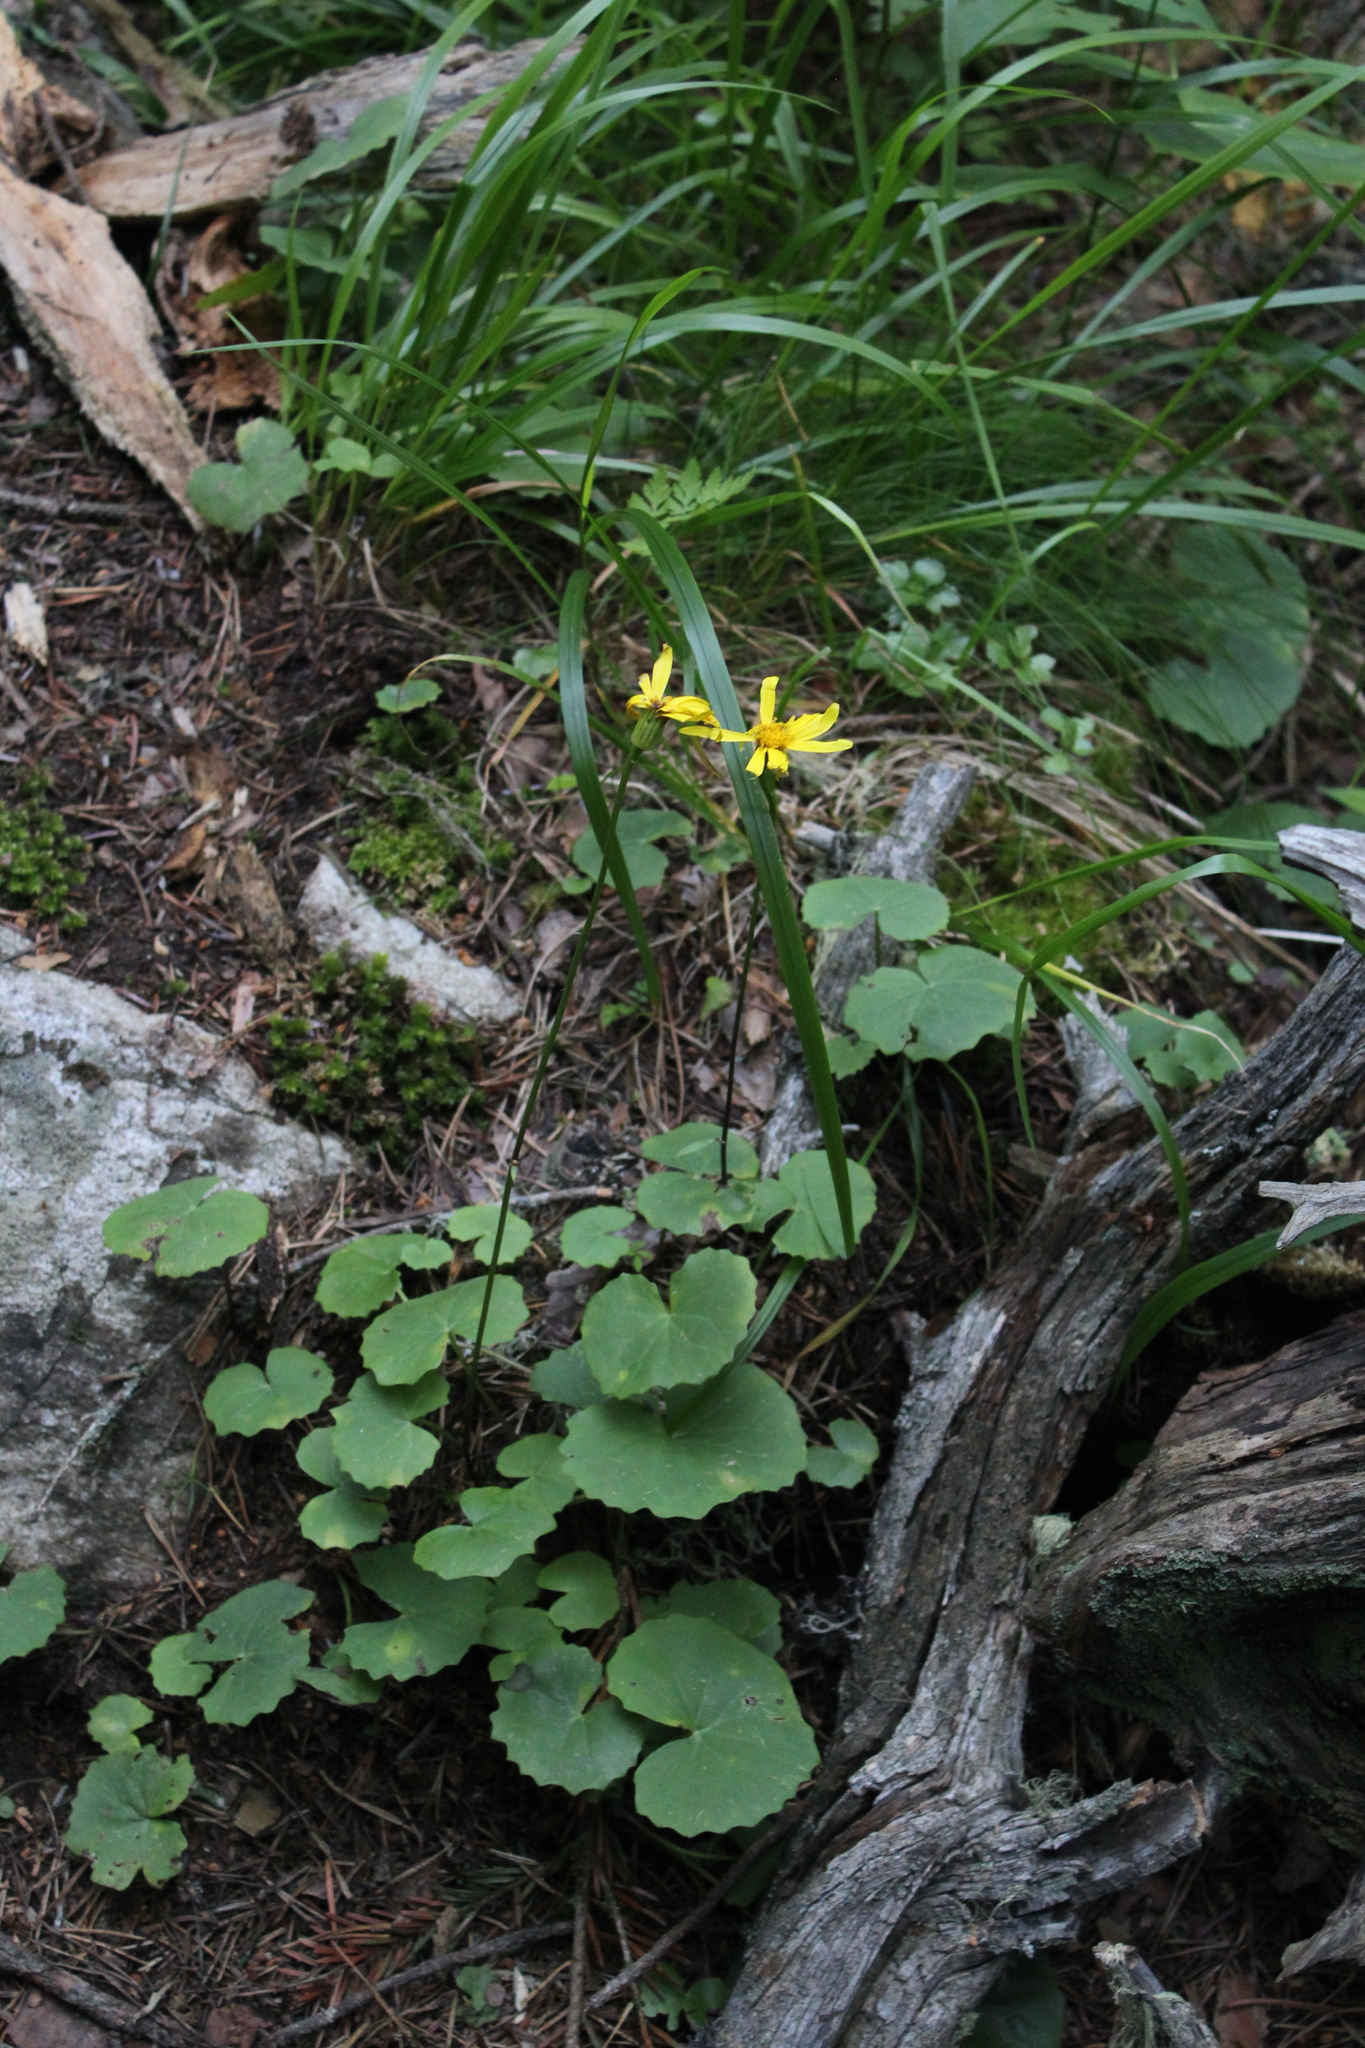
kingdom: Plantae
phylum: Tracheophyta
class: Magnoliopsida
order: Asterales
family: Asteraceae
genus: Dolichorrhiza
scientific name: Dolichorrhiza renifolia
